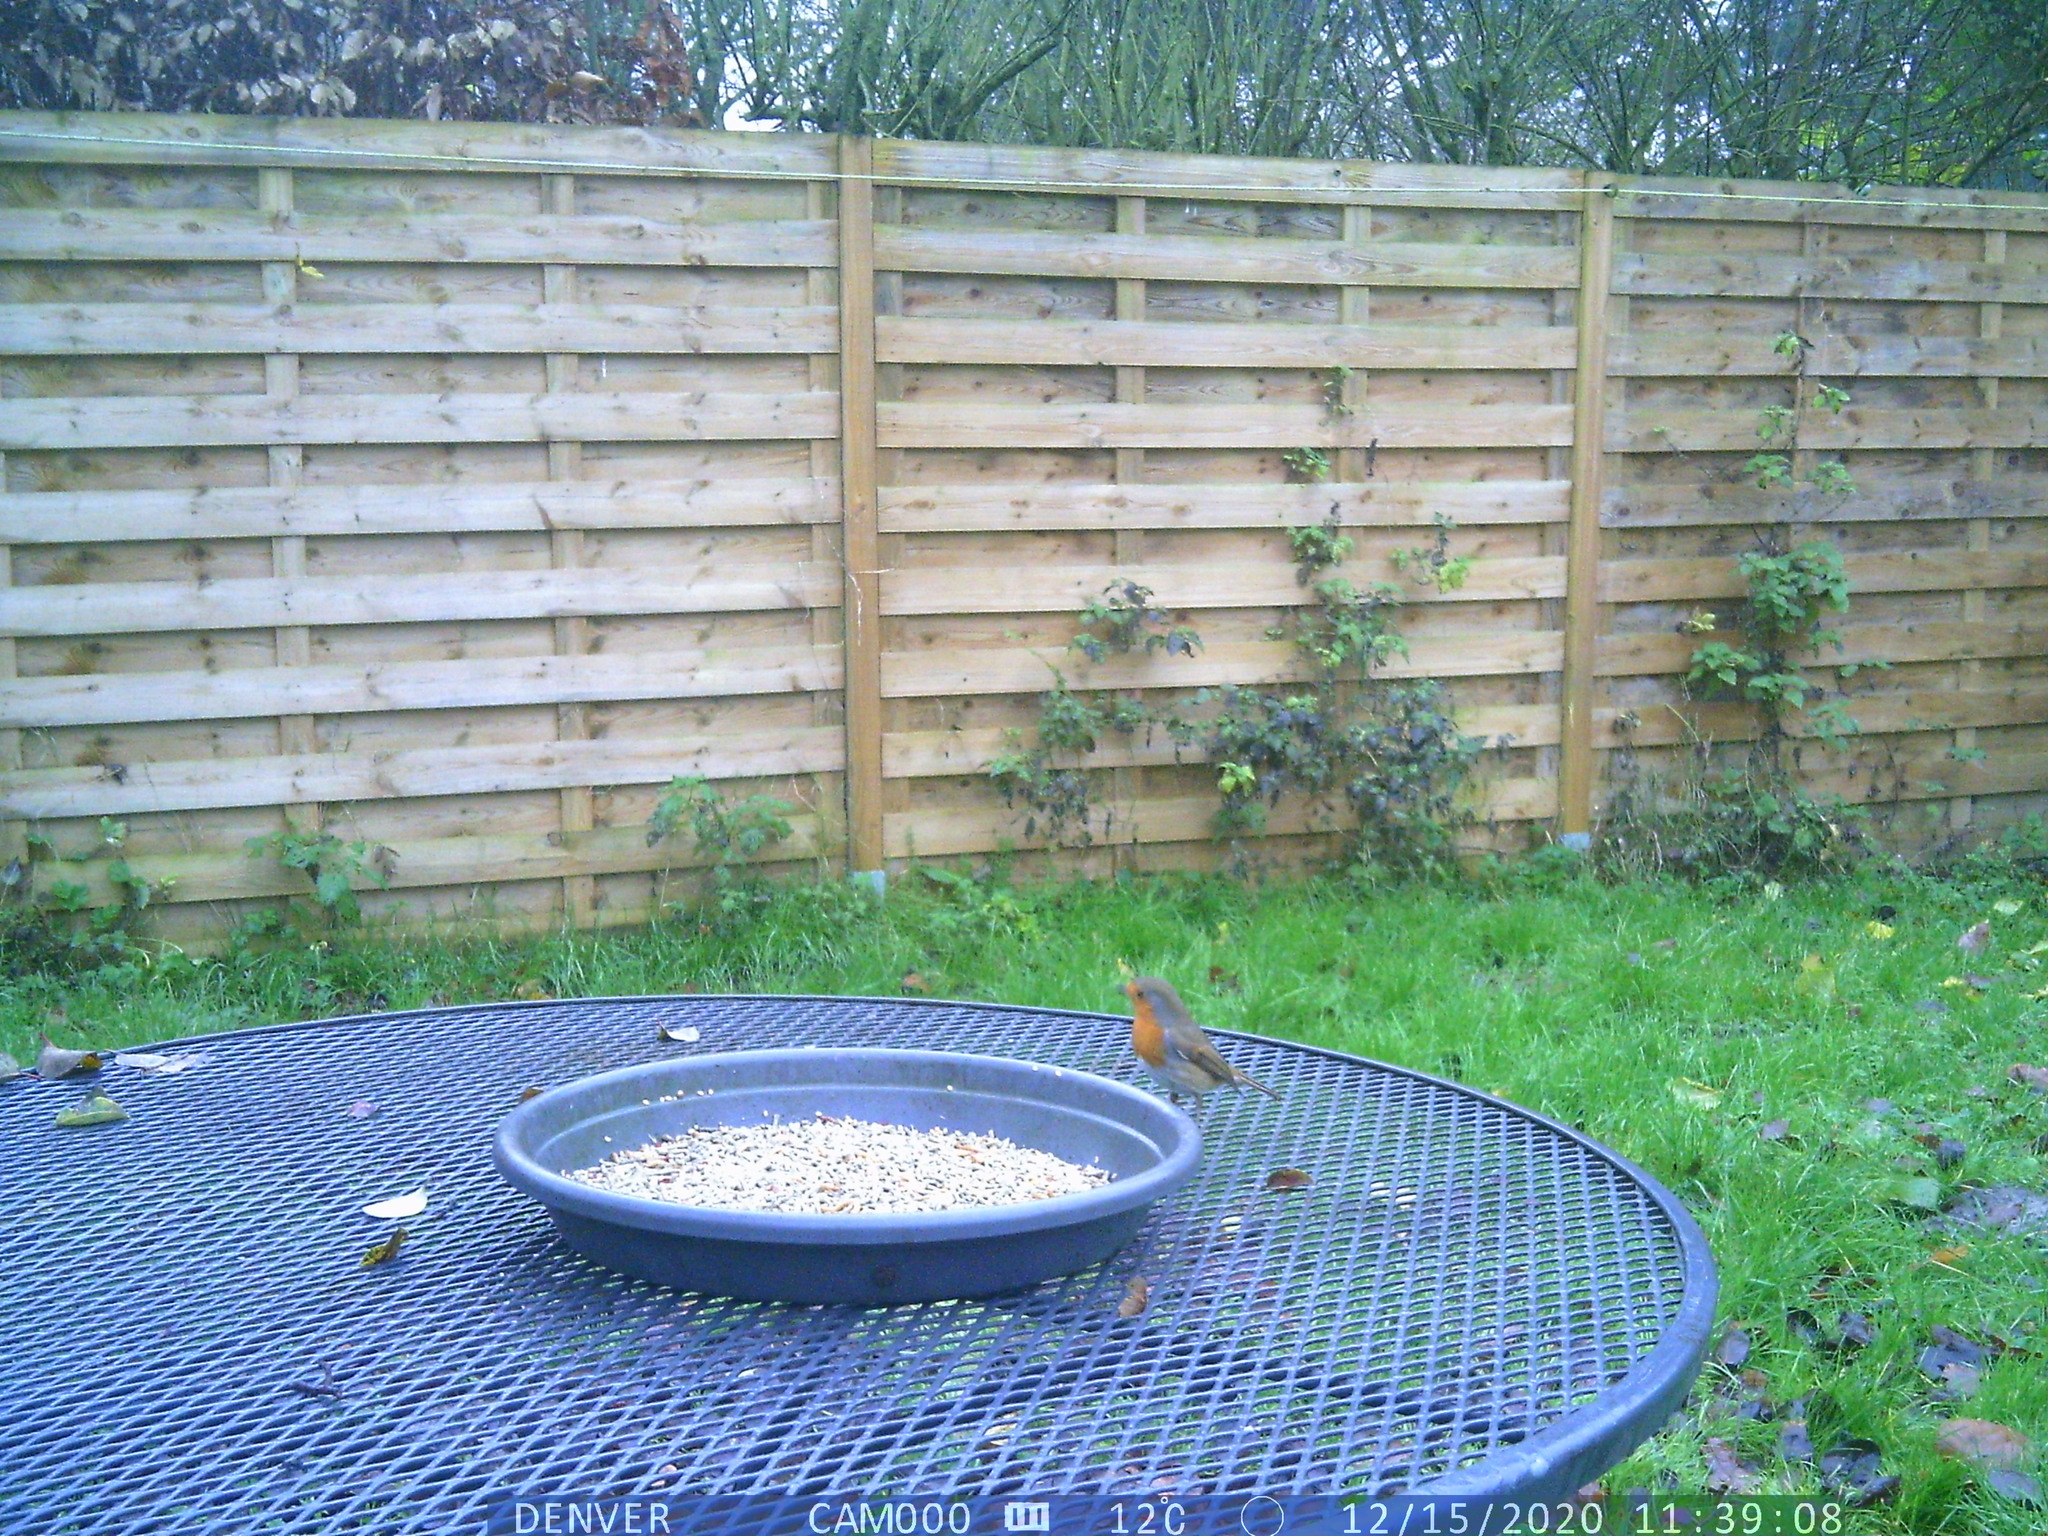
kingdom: Animalia
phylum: Chordata
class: Aves
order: Passeriformes
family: Muscicapidae
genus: Erithacus
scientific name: Erithacus rubecula
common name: European robin
